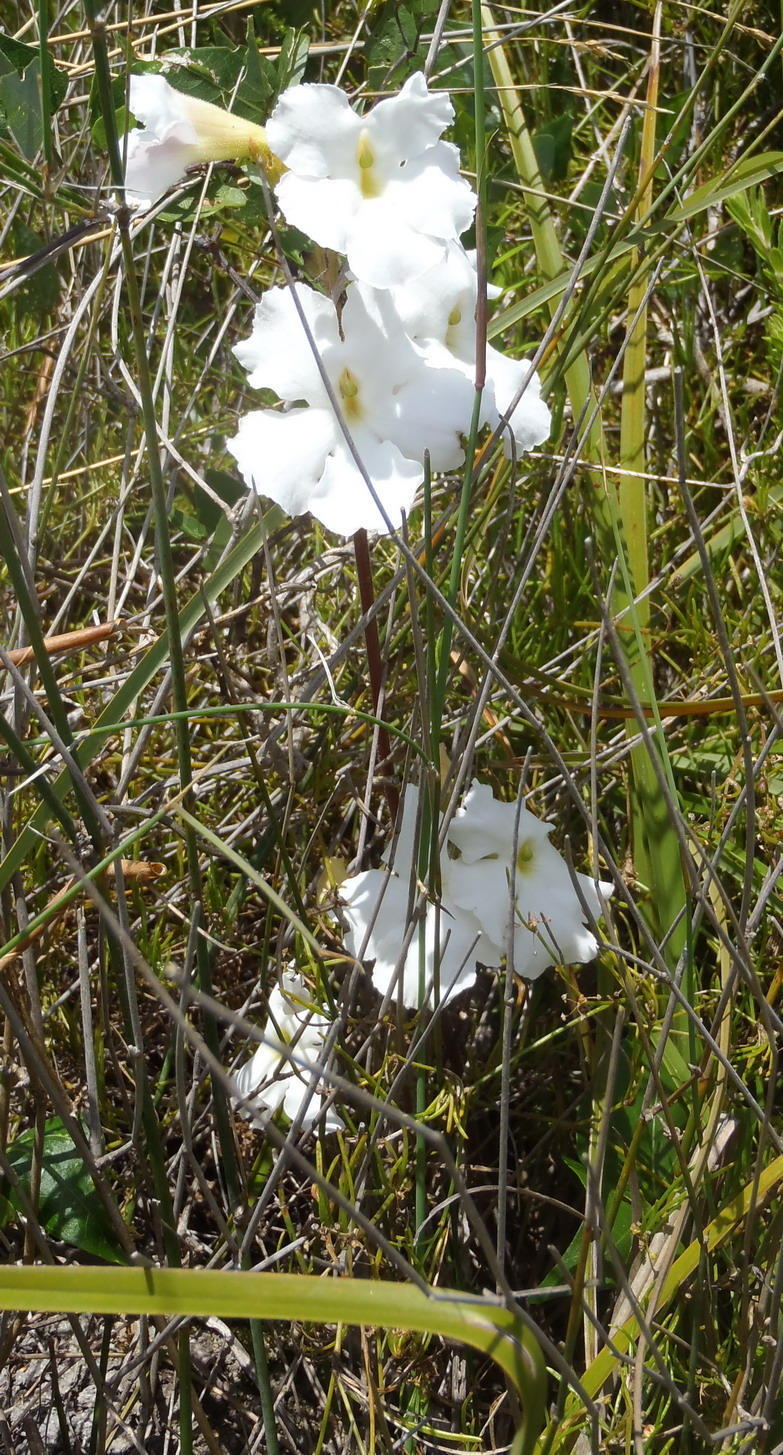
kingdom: Plantae
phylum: Tracheophyta
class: Magnoliopsida
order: Lamiales
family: Orobanchaceae
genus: Harveya
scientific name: Harveya capensis
